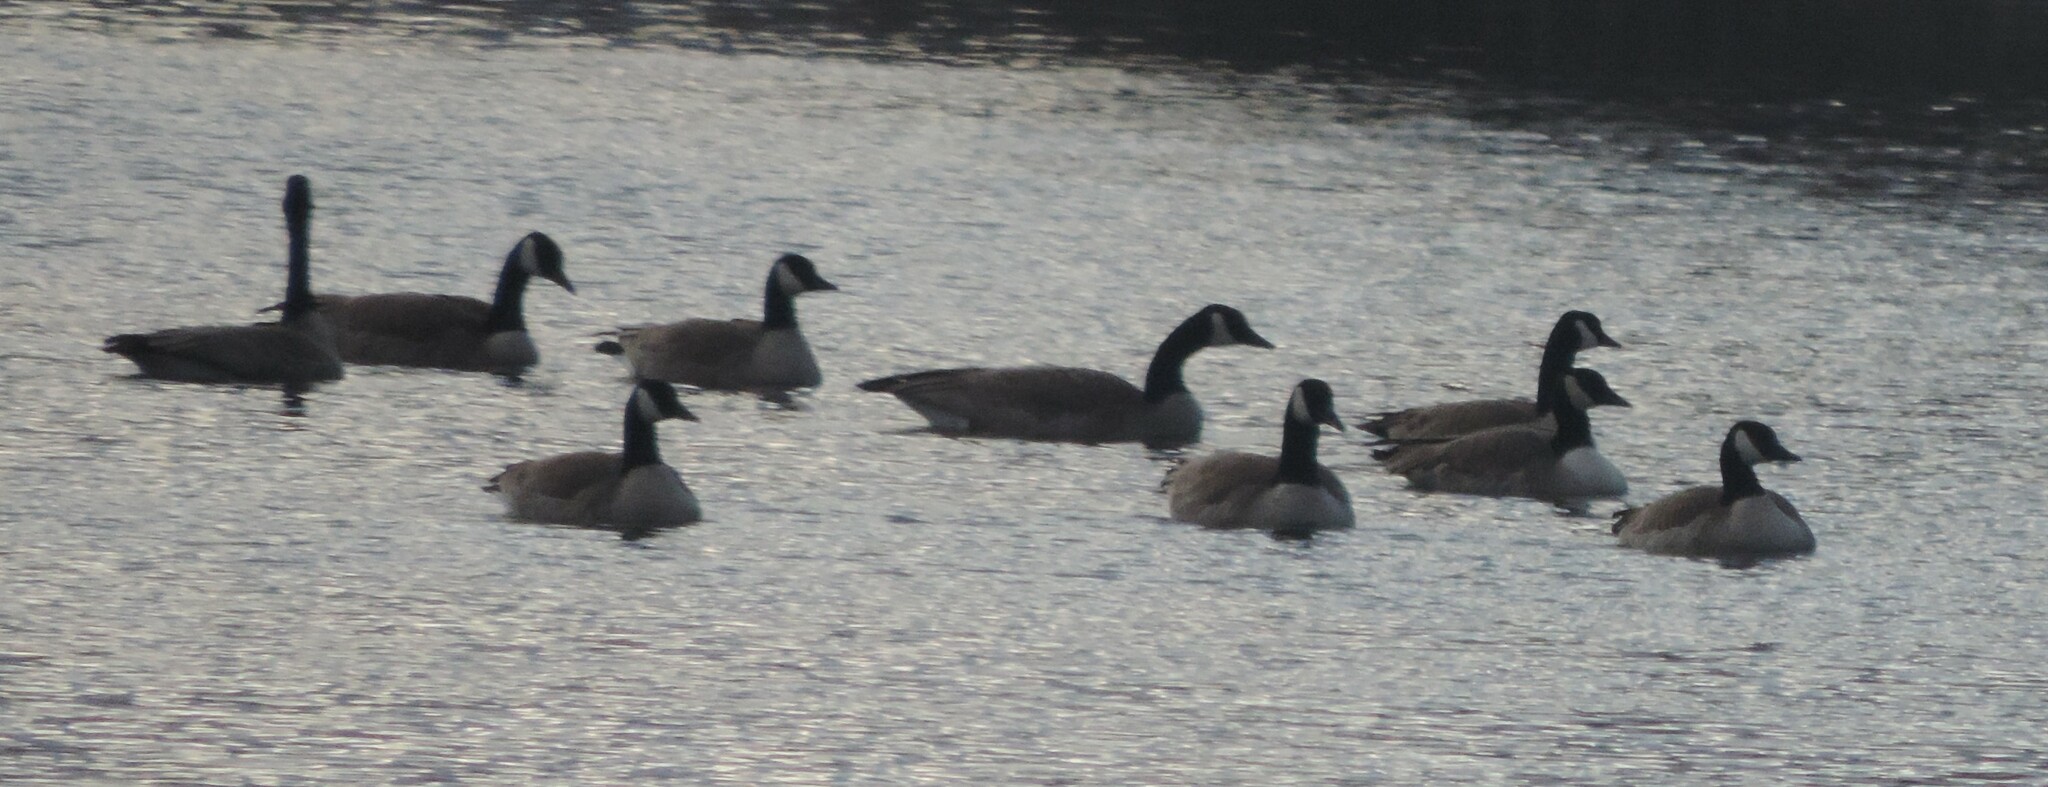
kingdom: Animalia
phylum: Chordata
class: Aves
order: Anseriformes
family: Anatidae
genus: Branta
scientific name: Branta canadensis
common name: Canada goose
